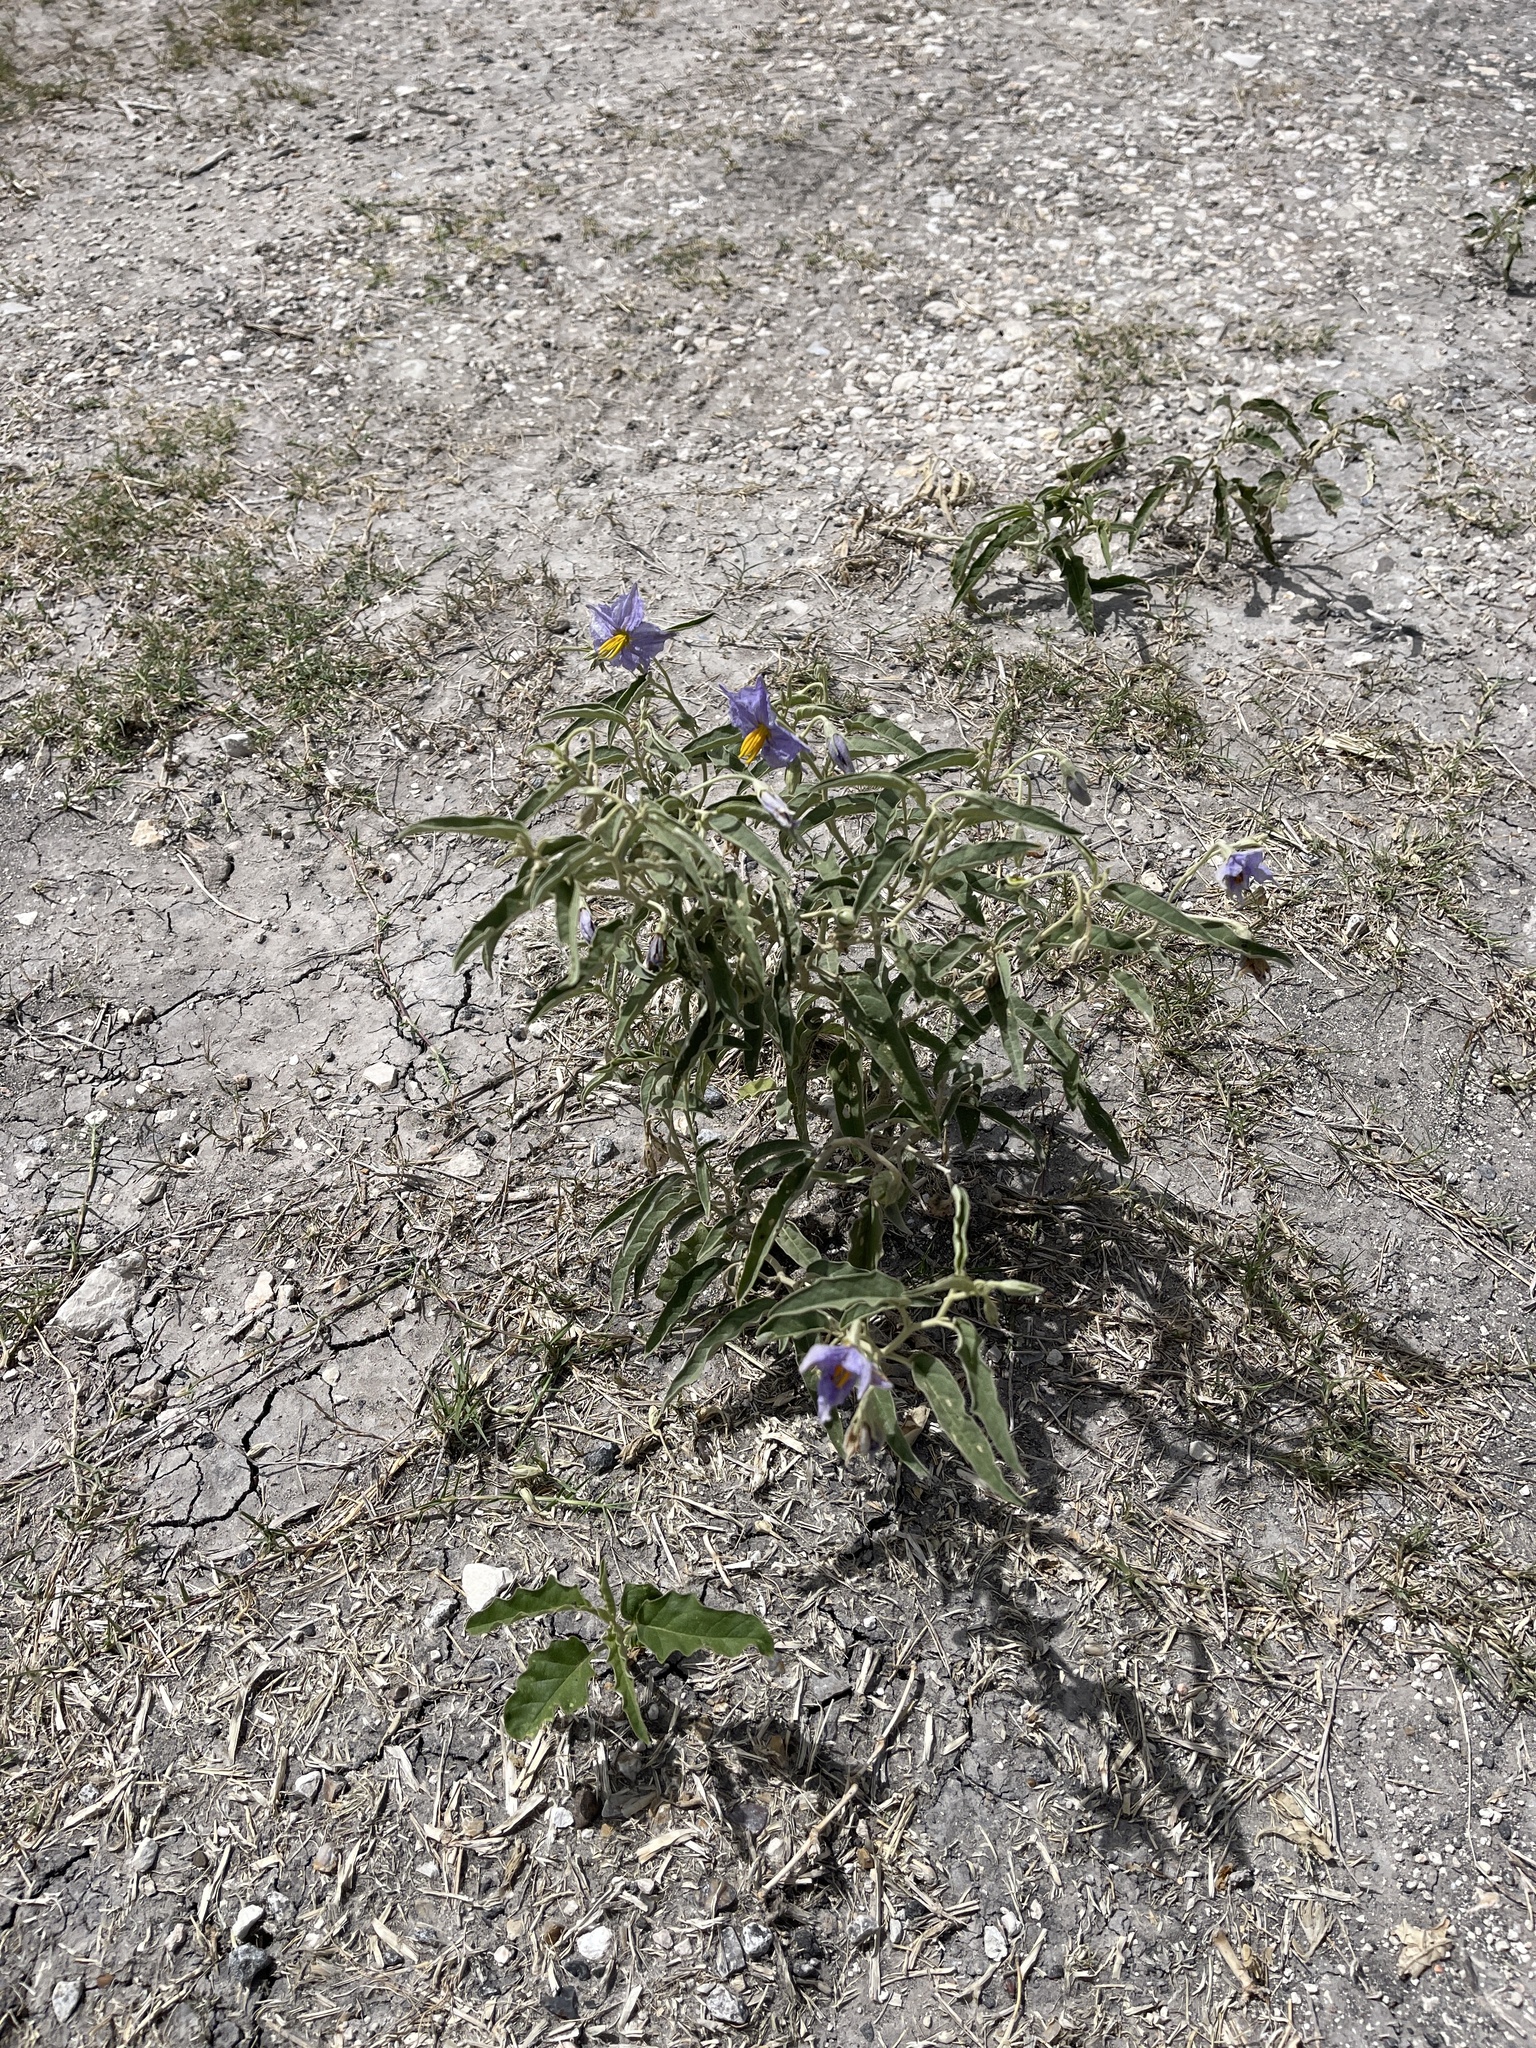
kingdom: Plantae
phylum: Tracheophyta
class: Magnoliopsida
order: Solanales
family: Solanaceae
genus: Solanum
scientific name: Solanum elaeagnifolium
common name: Silverleaf nightshade
